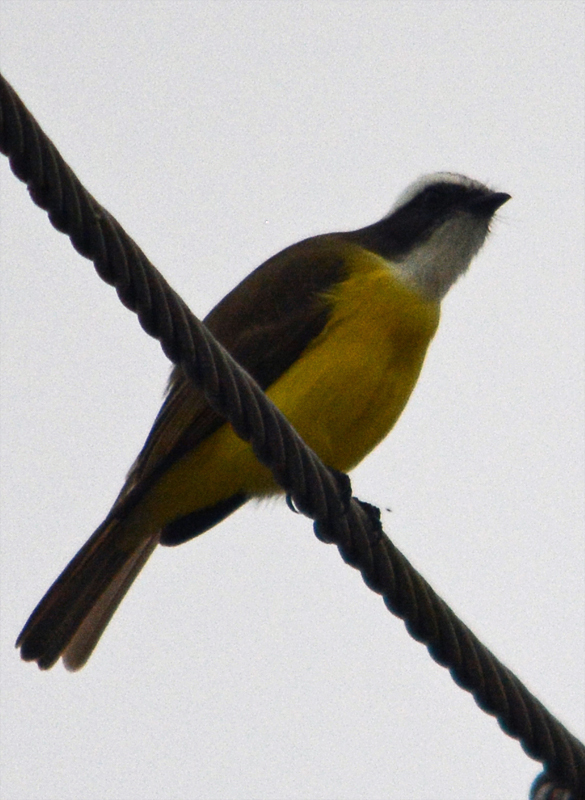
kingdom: Animalia
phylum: Chordata
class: Aves
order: Passeriformes
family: Tyrannidae
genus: Myiozetetes
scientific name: Myiozetetes similis
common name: Social flycatcher
